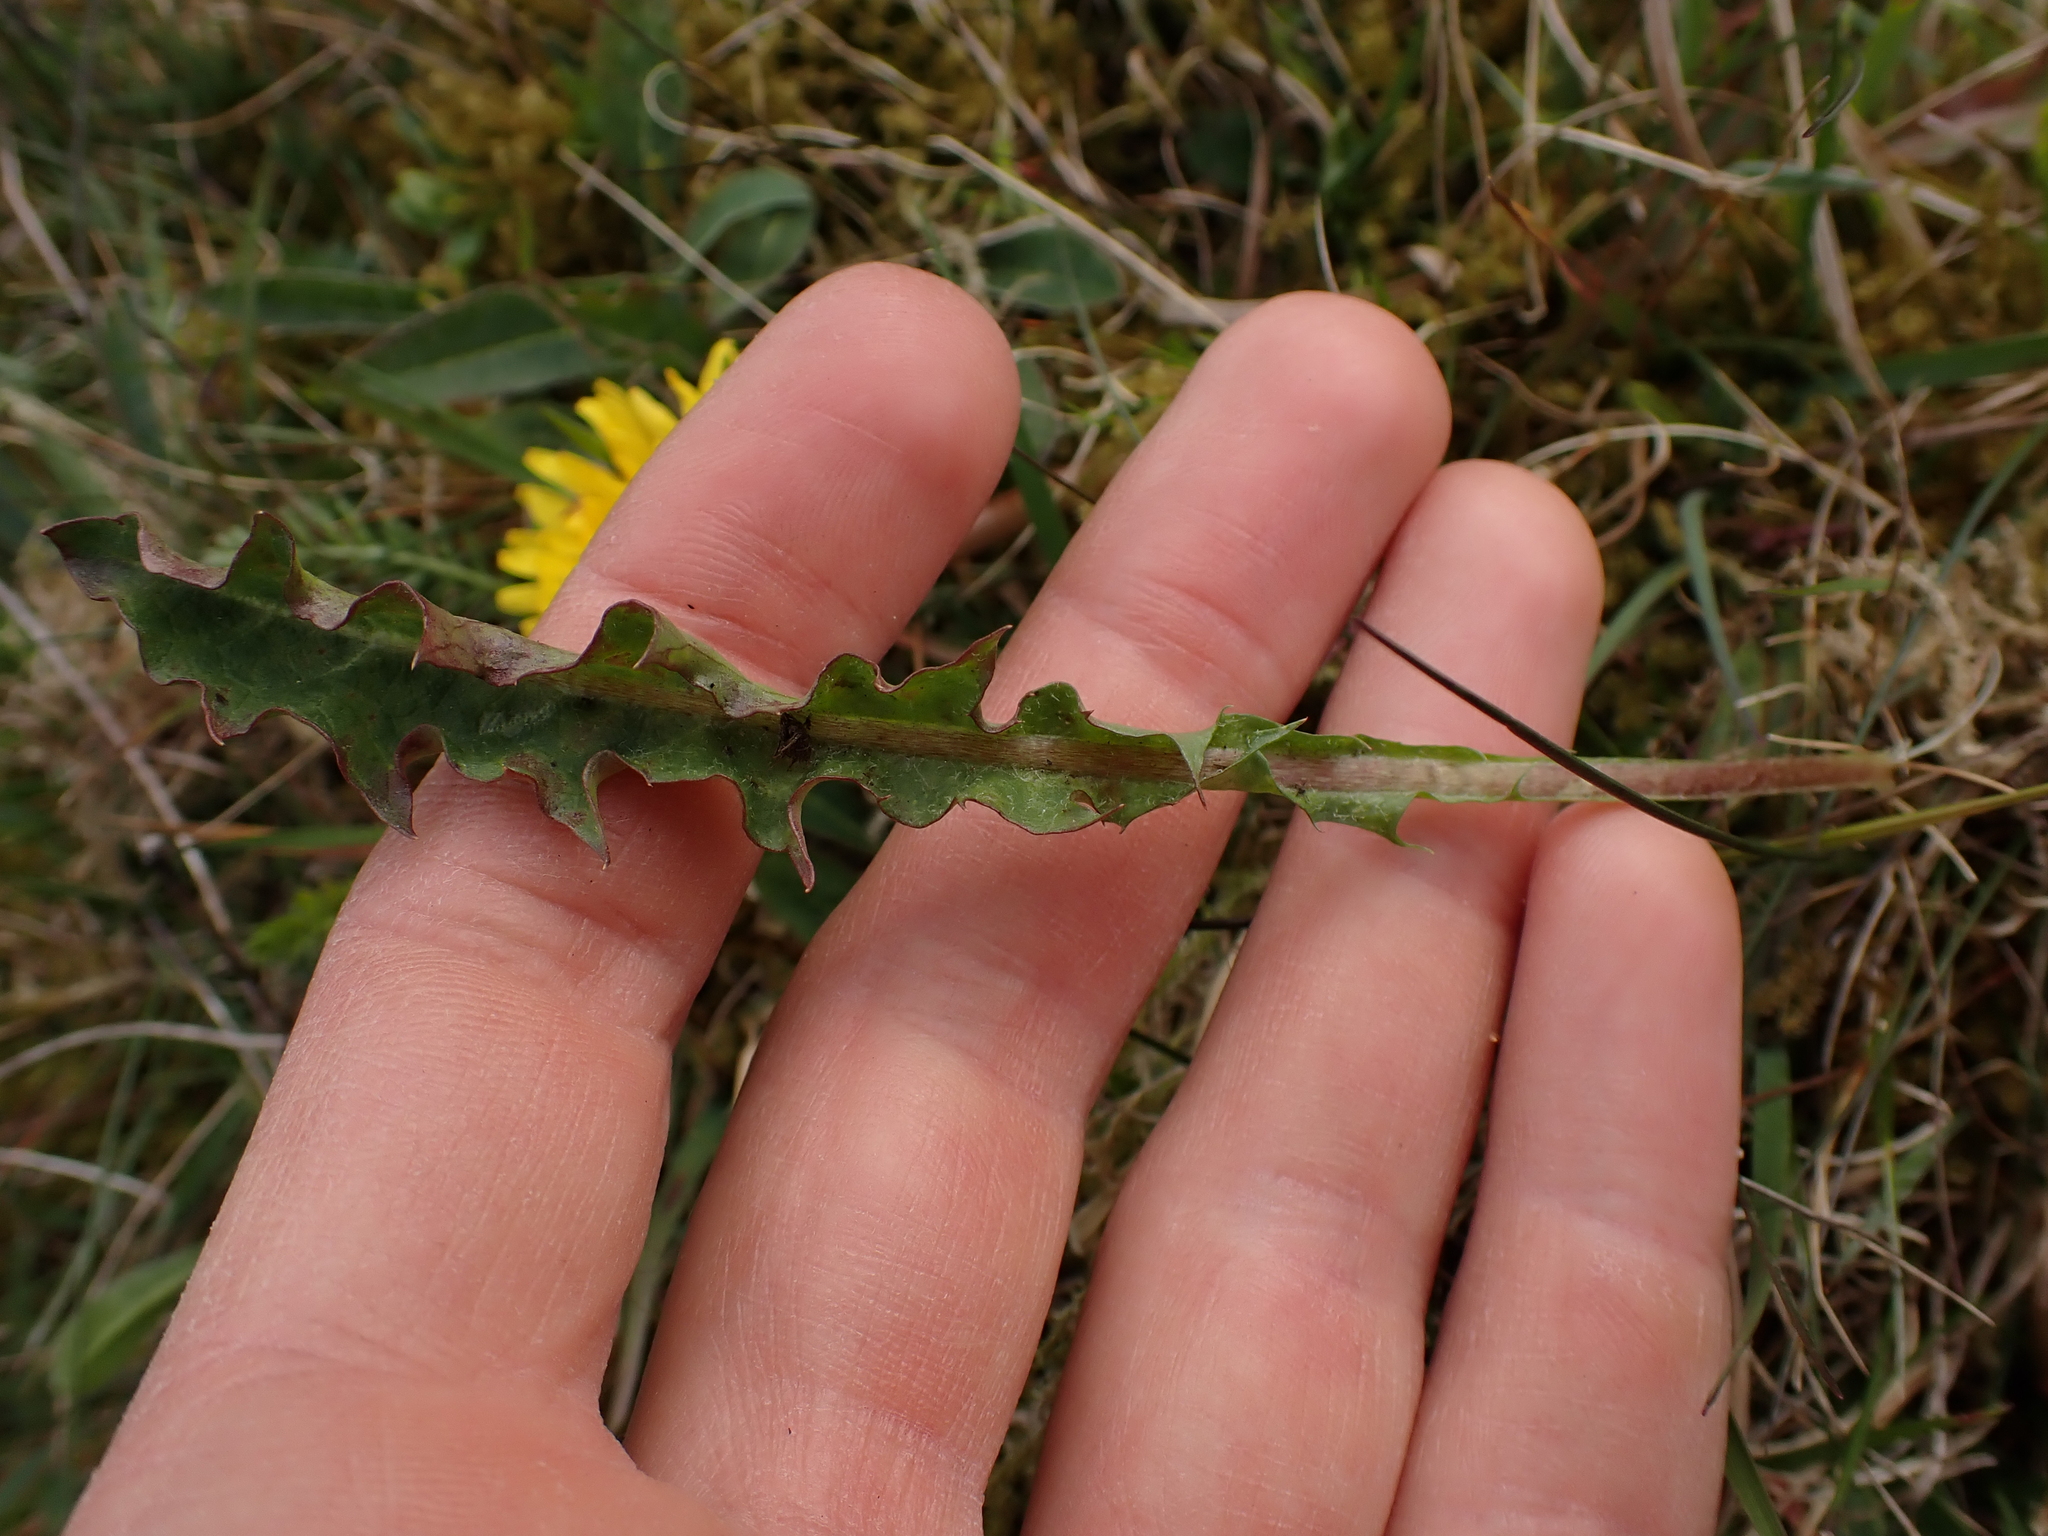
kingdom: Plantae
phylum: Tracheophyta
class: Magnoliopsida
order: Asterales
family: Asteraceae
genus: Taraxacum
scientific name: Taraxacum faeroense
